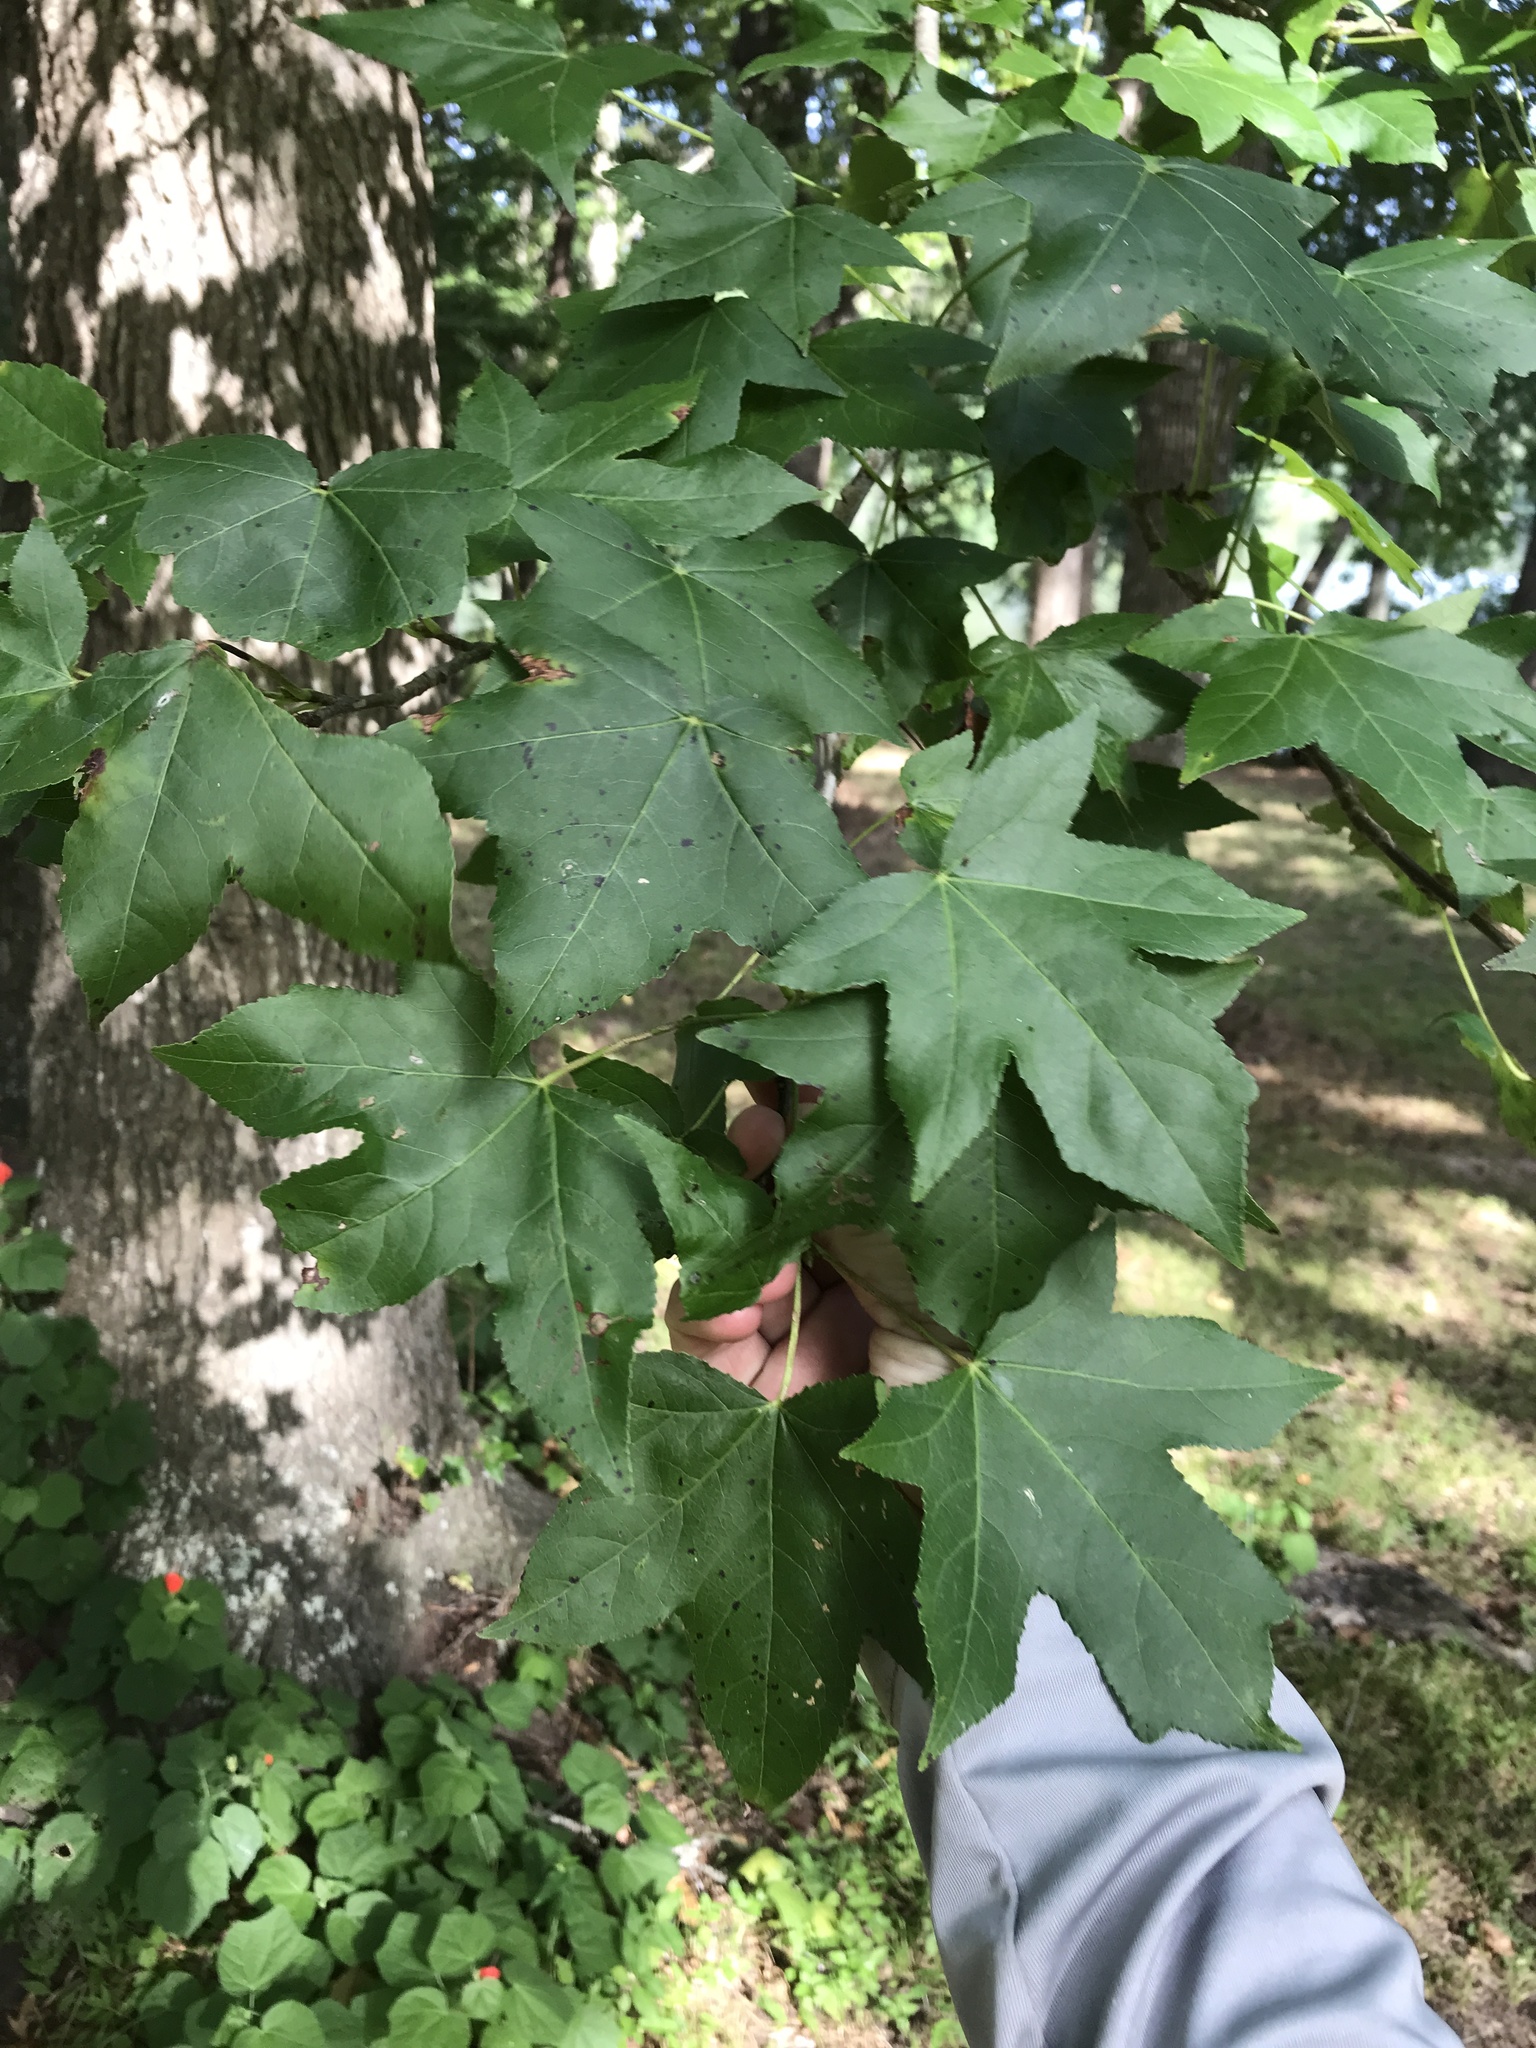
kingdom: Plantae
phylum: Tracheophyta
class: Magnoliopsida
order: Saxifragales
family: Altingiaceae
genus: Liquidambar
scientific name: Liquidambar styraciflua
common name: Sweet gum
